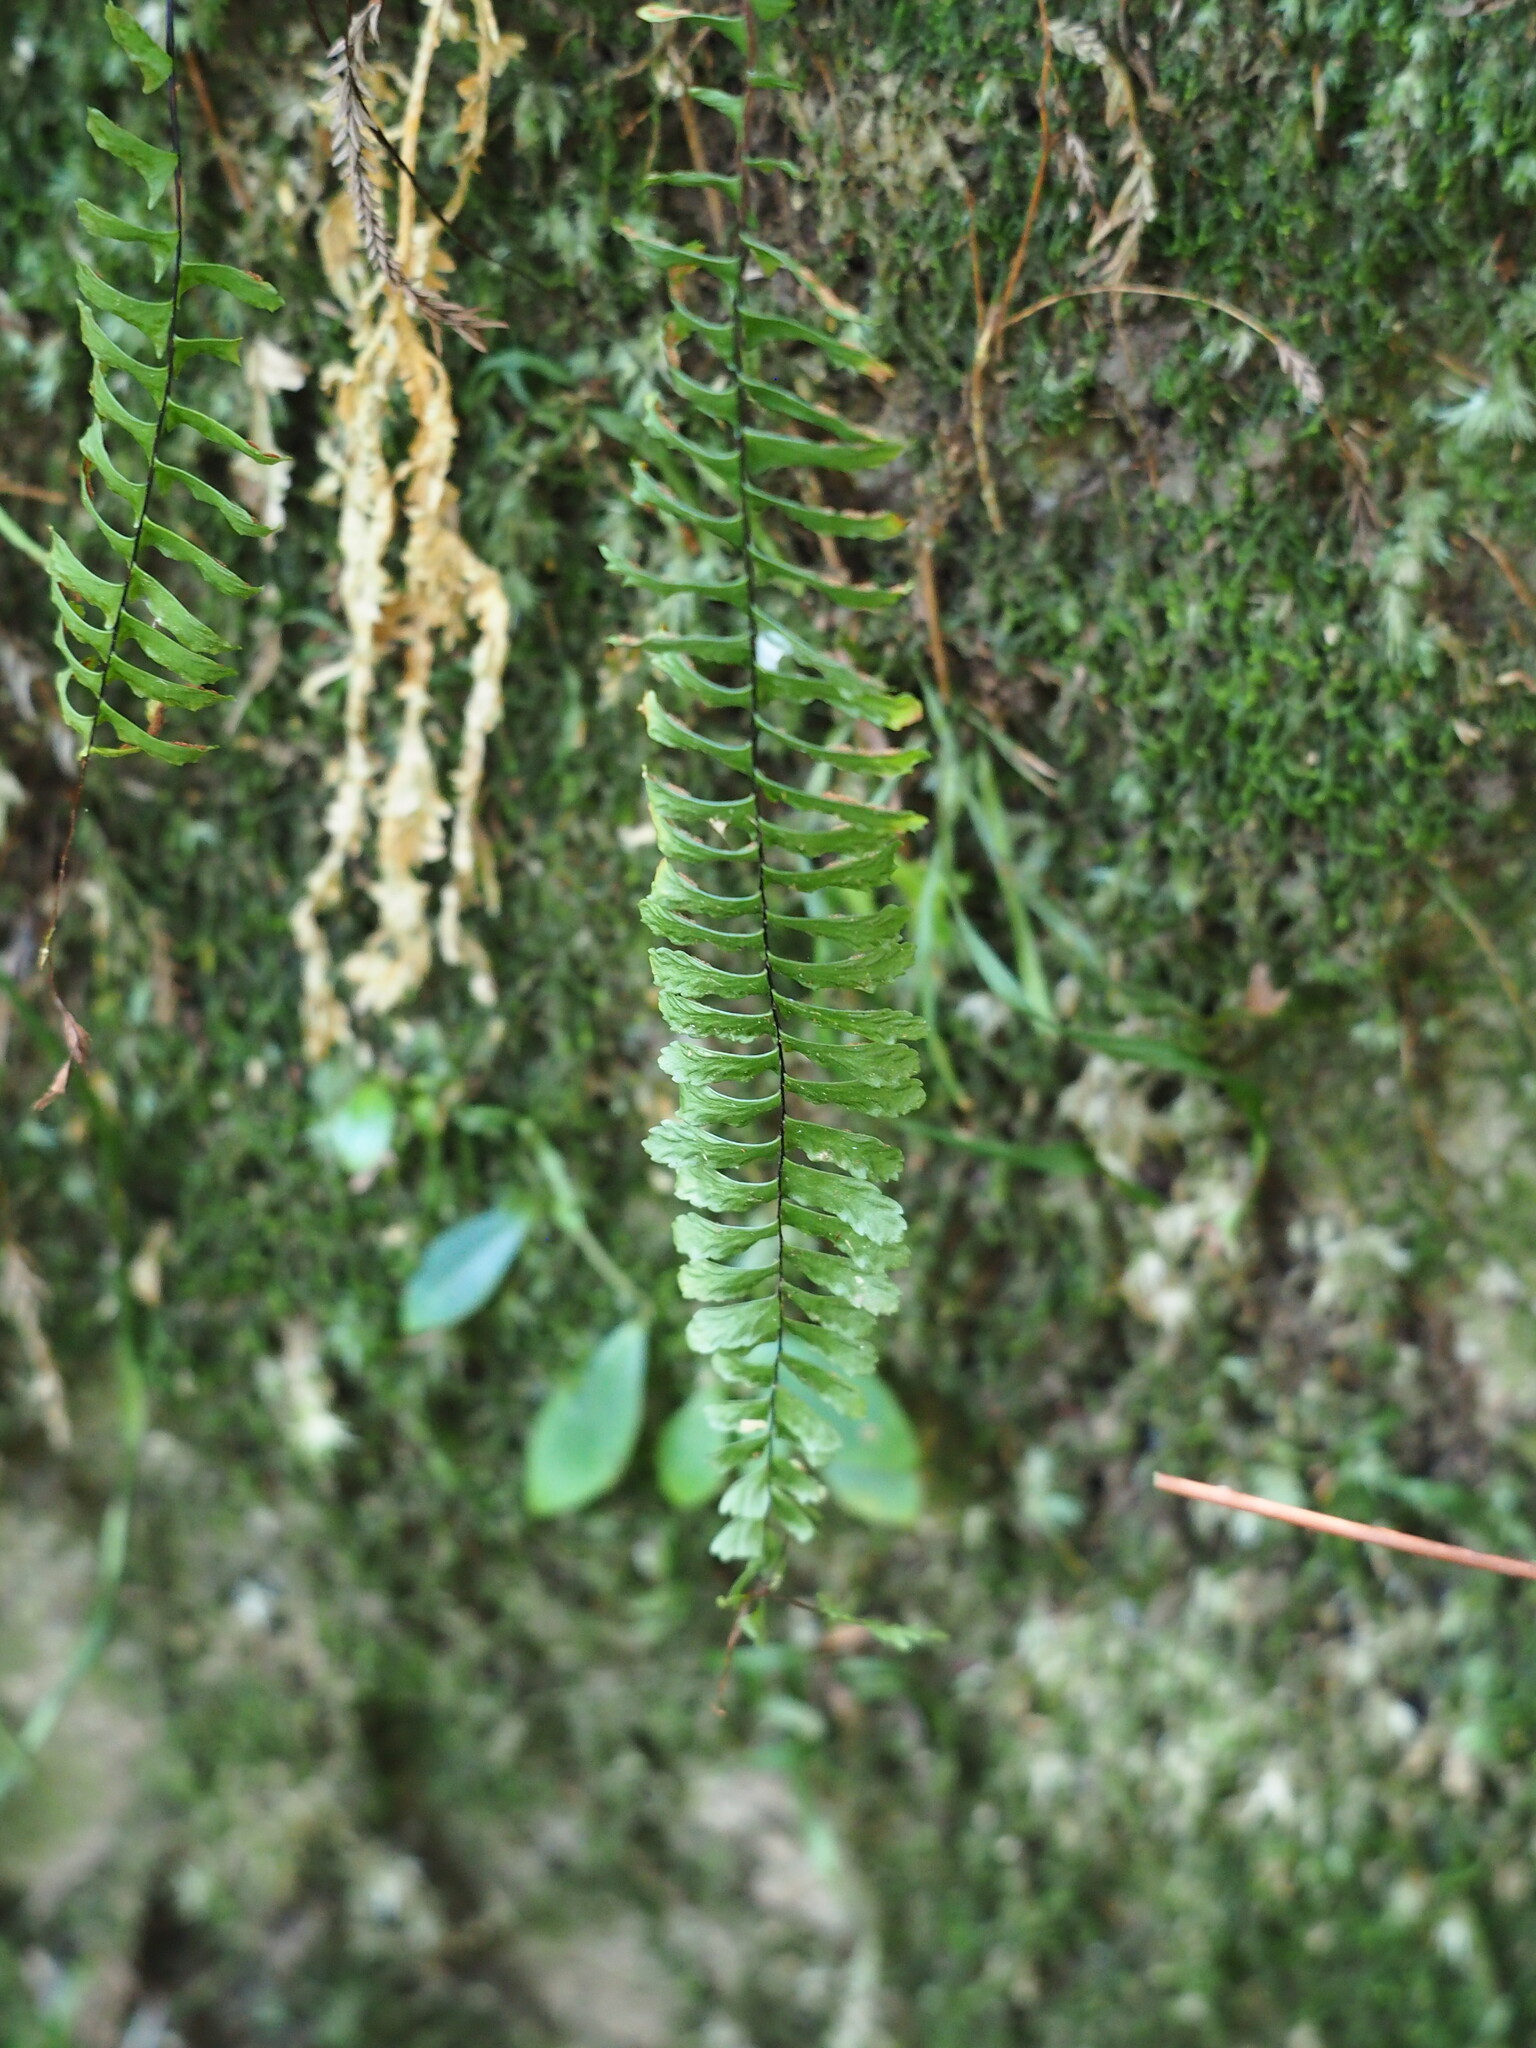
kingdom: Plantae
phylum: Tracheophyta
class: Polypodiopsida
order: Polypodiales
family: Aspleniaceae
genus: Asplenium
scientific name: Asplenium normale
